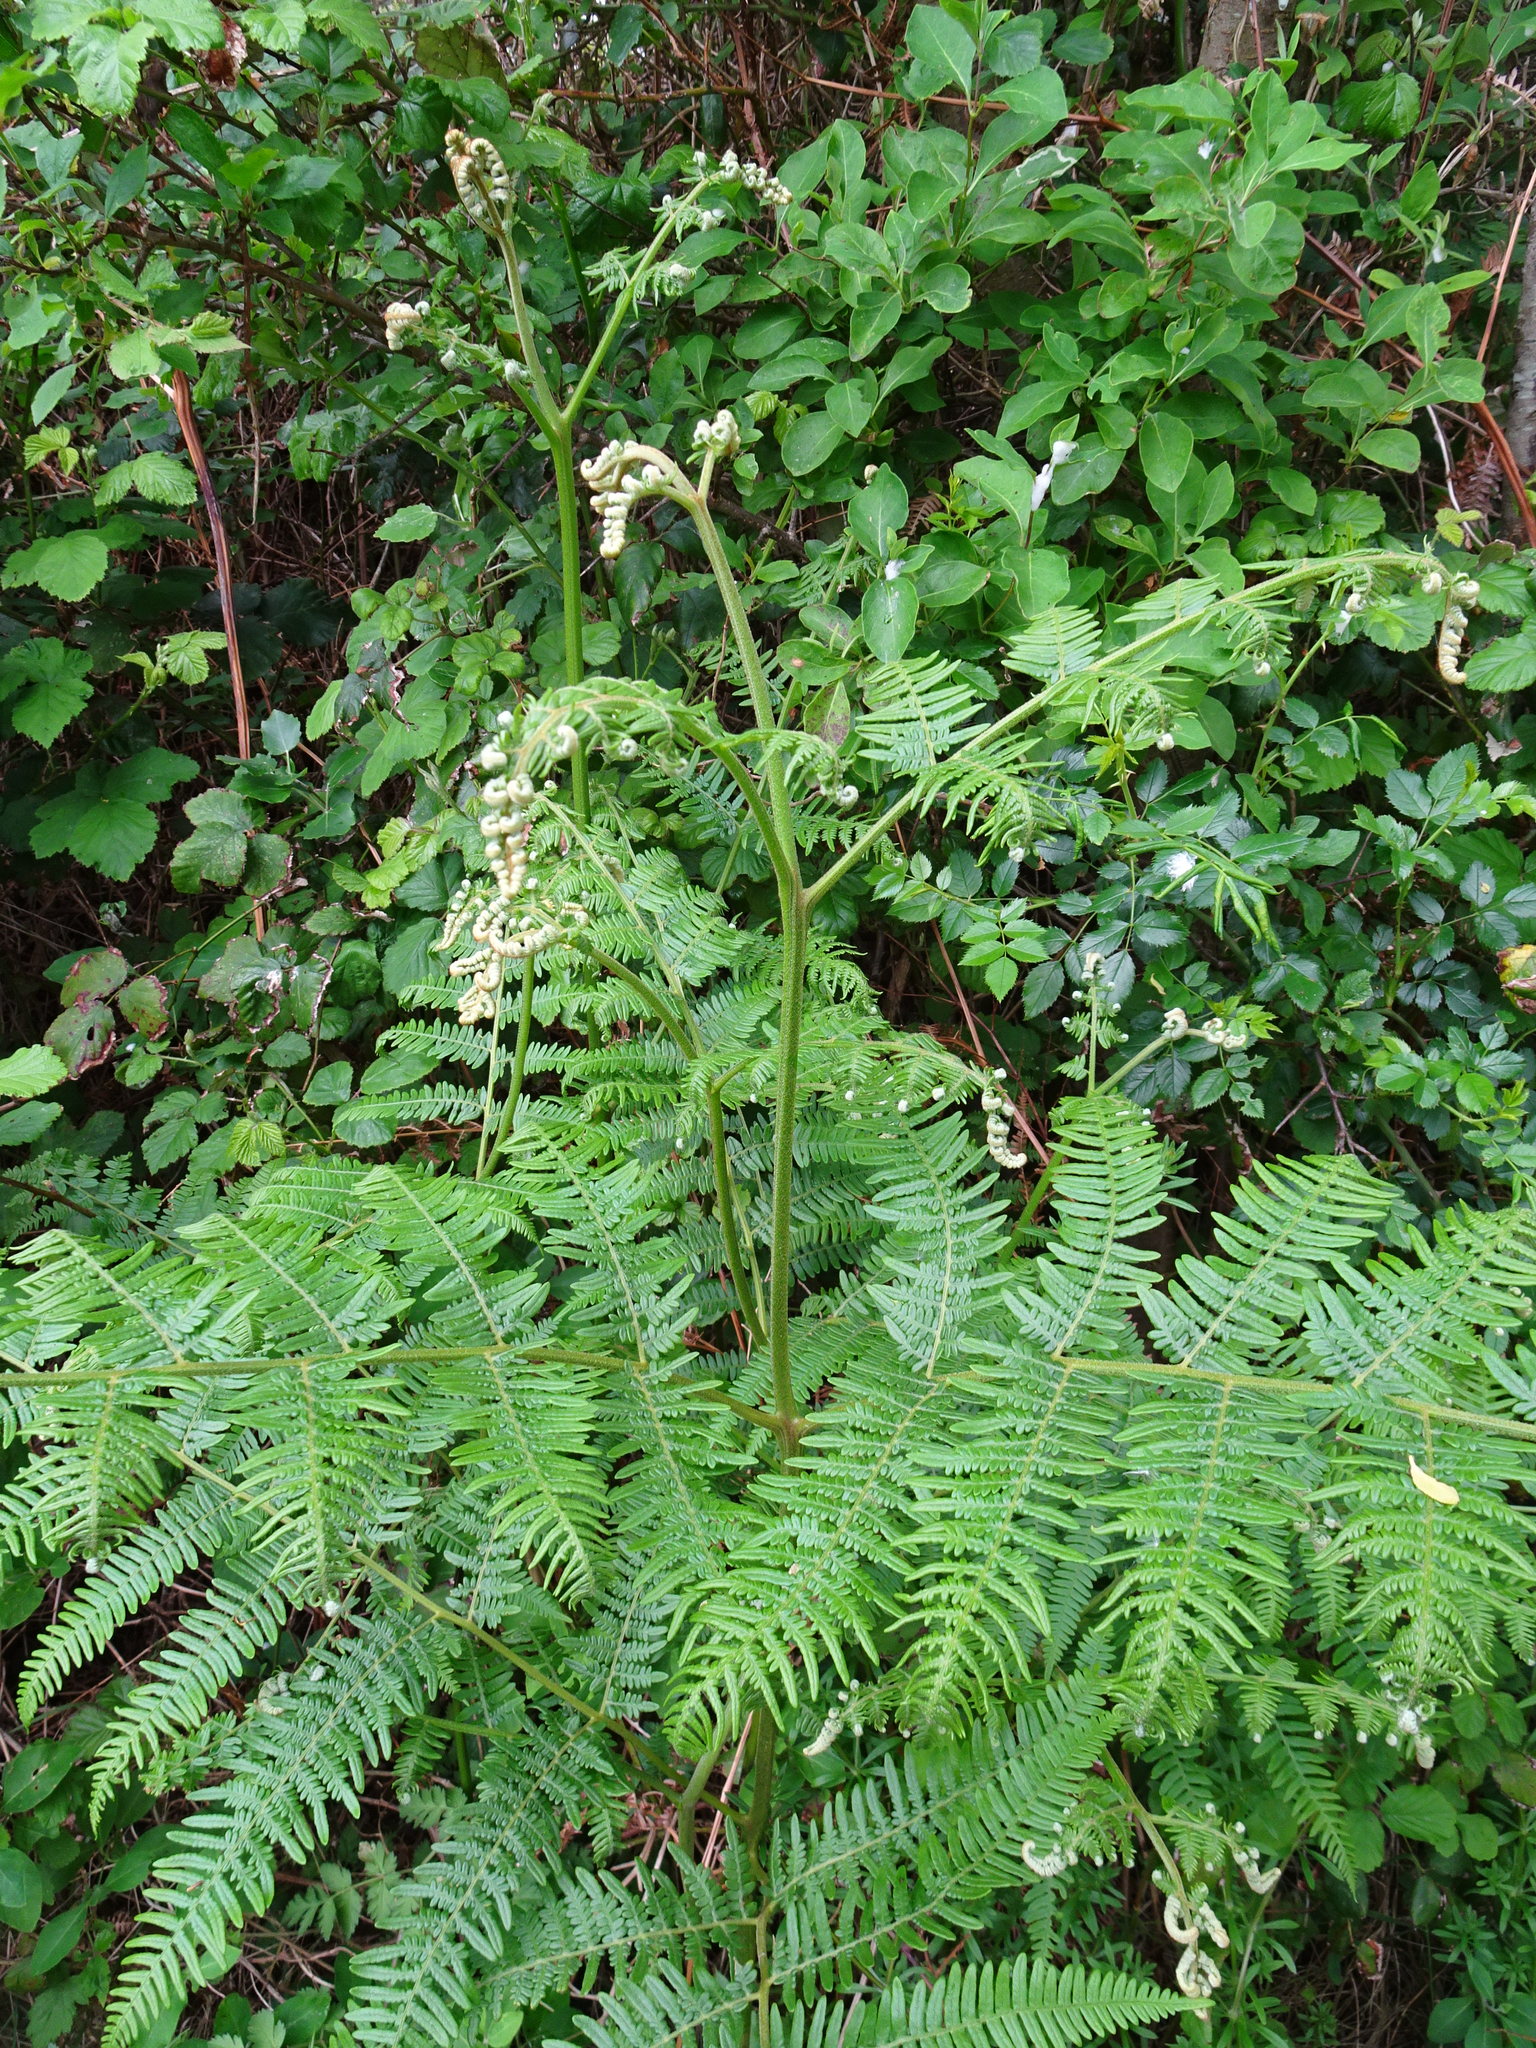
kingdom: Plantae
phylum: Tracheophyta
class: Polypodiopsida
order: Polypodiales
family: Dennstaedtiaceae
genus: Pteridium
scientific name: Pteridium aquilinum
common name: Bracken
